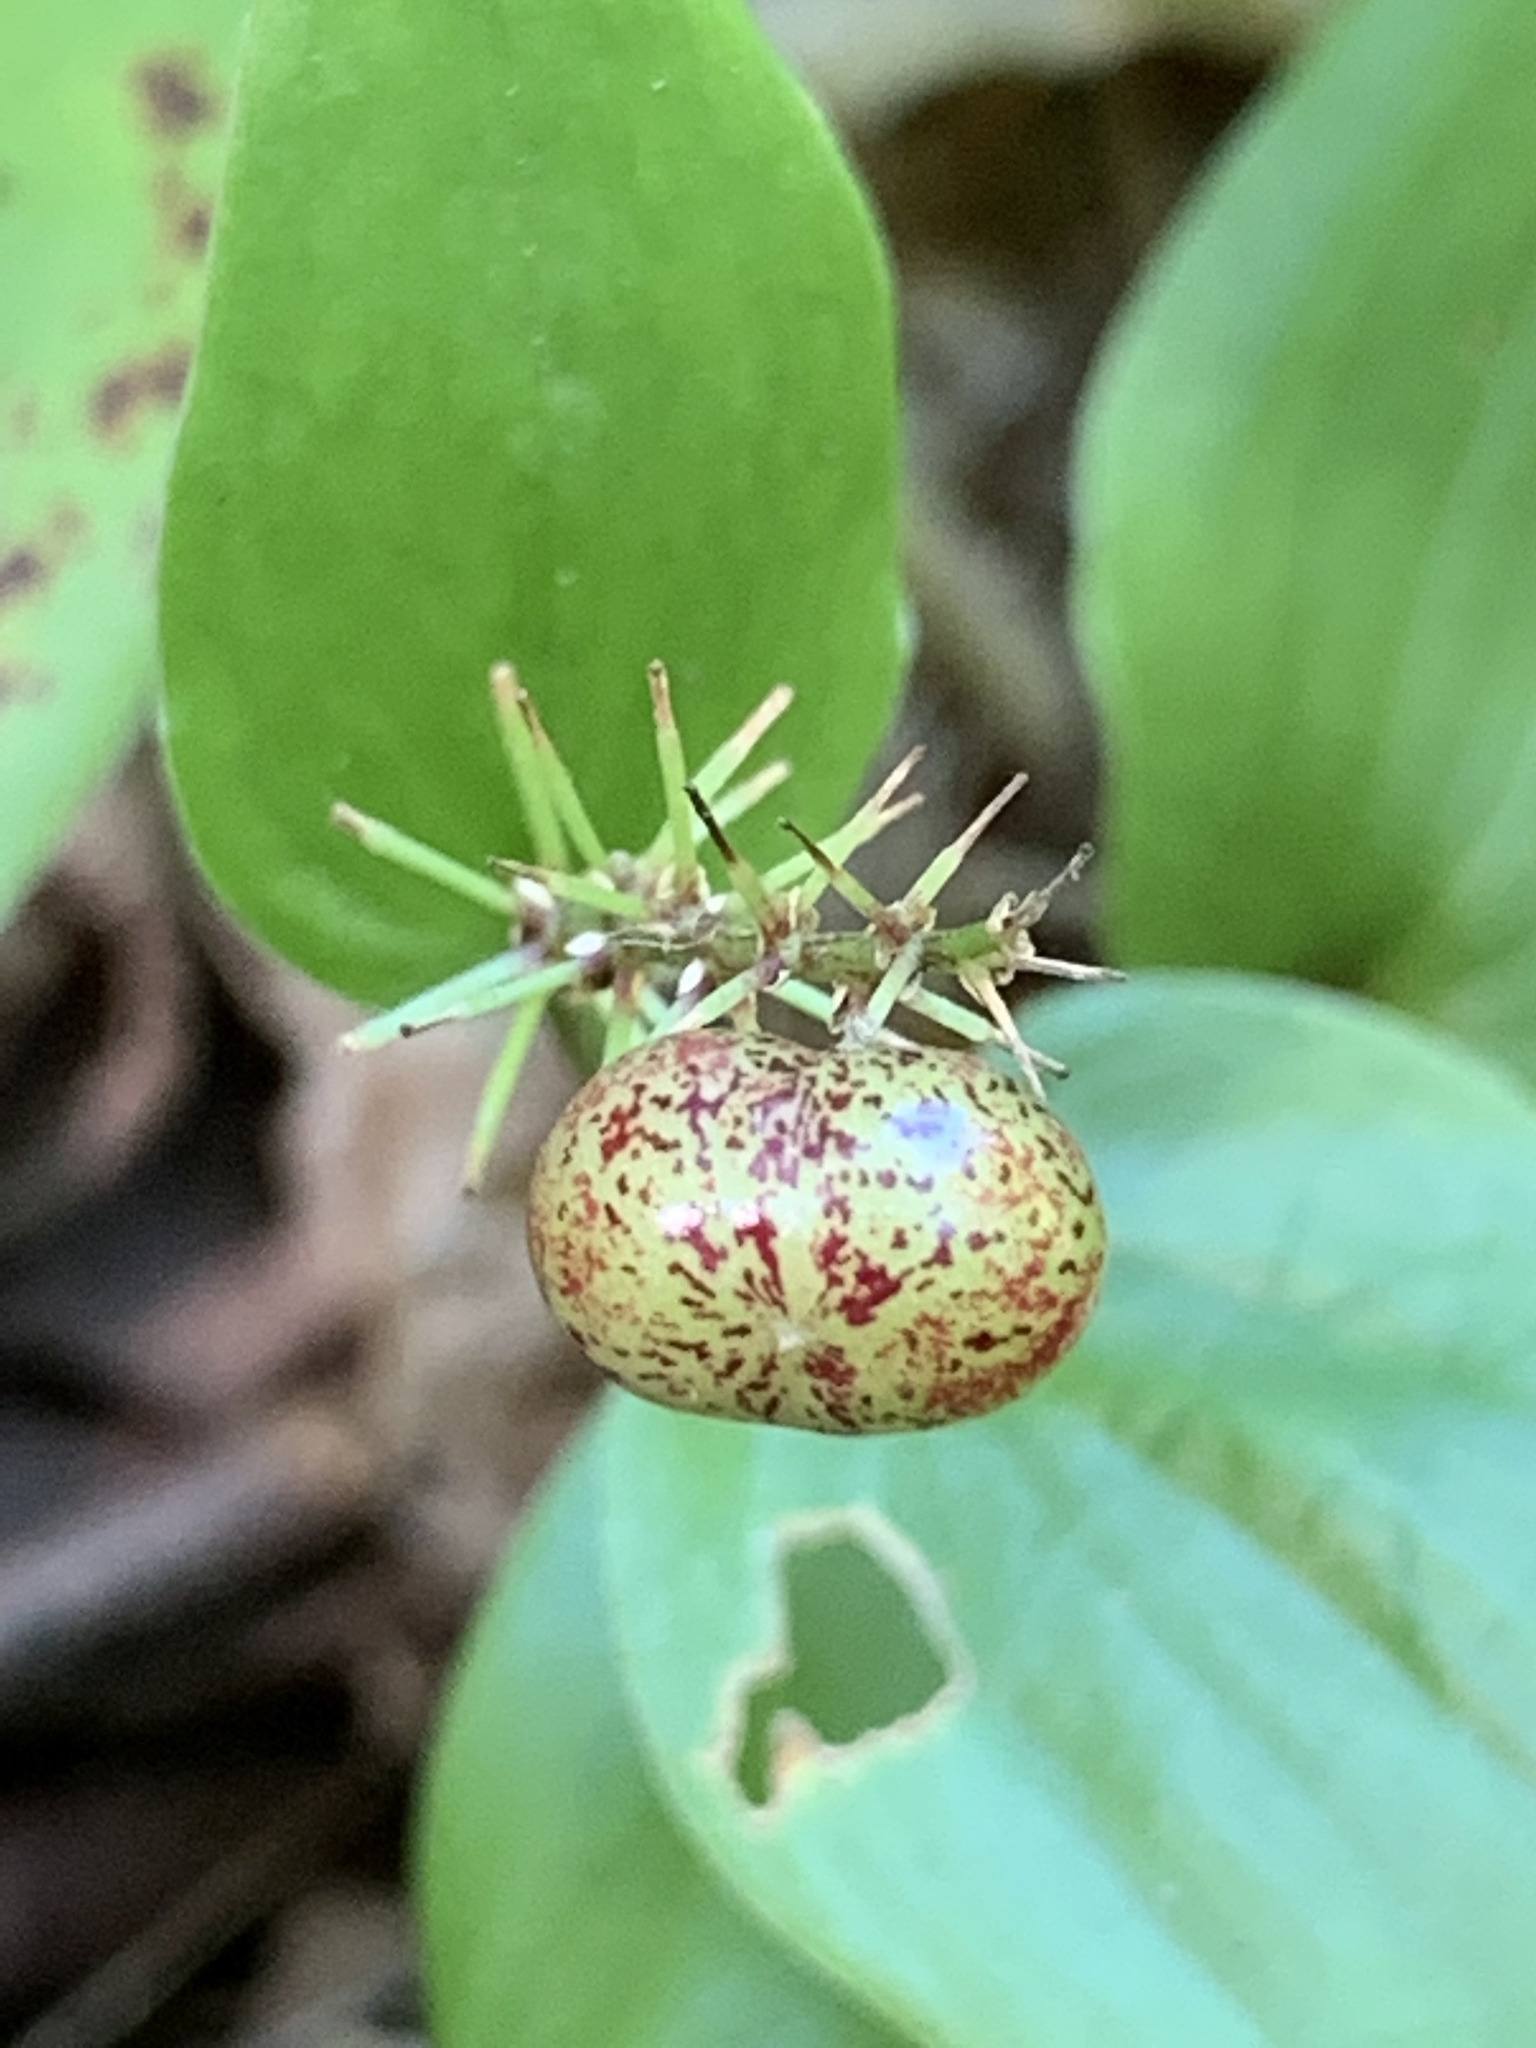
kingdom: Plantae
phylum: Tracheophyta
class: Liliopsida
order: Asparagales
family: Asparagaceae
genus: Maianthemum
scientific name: Maianthemum canadense
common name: False lily-of-the-valley
